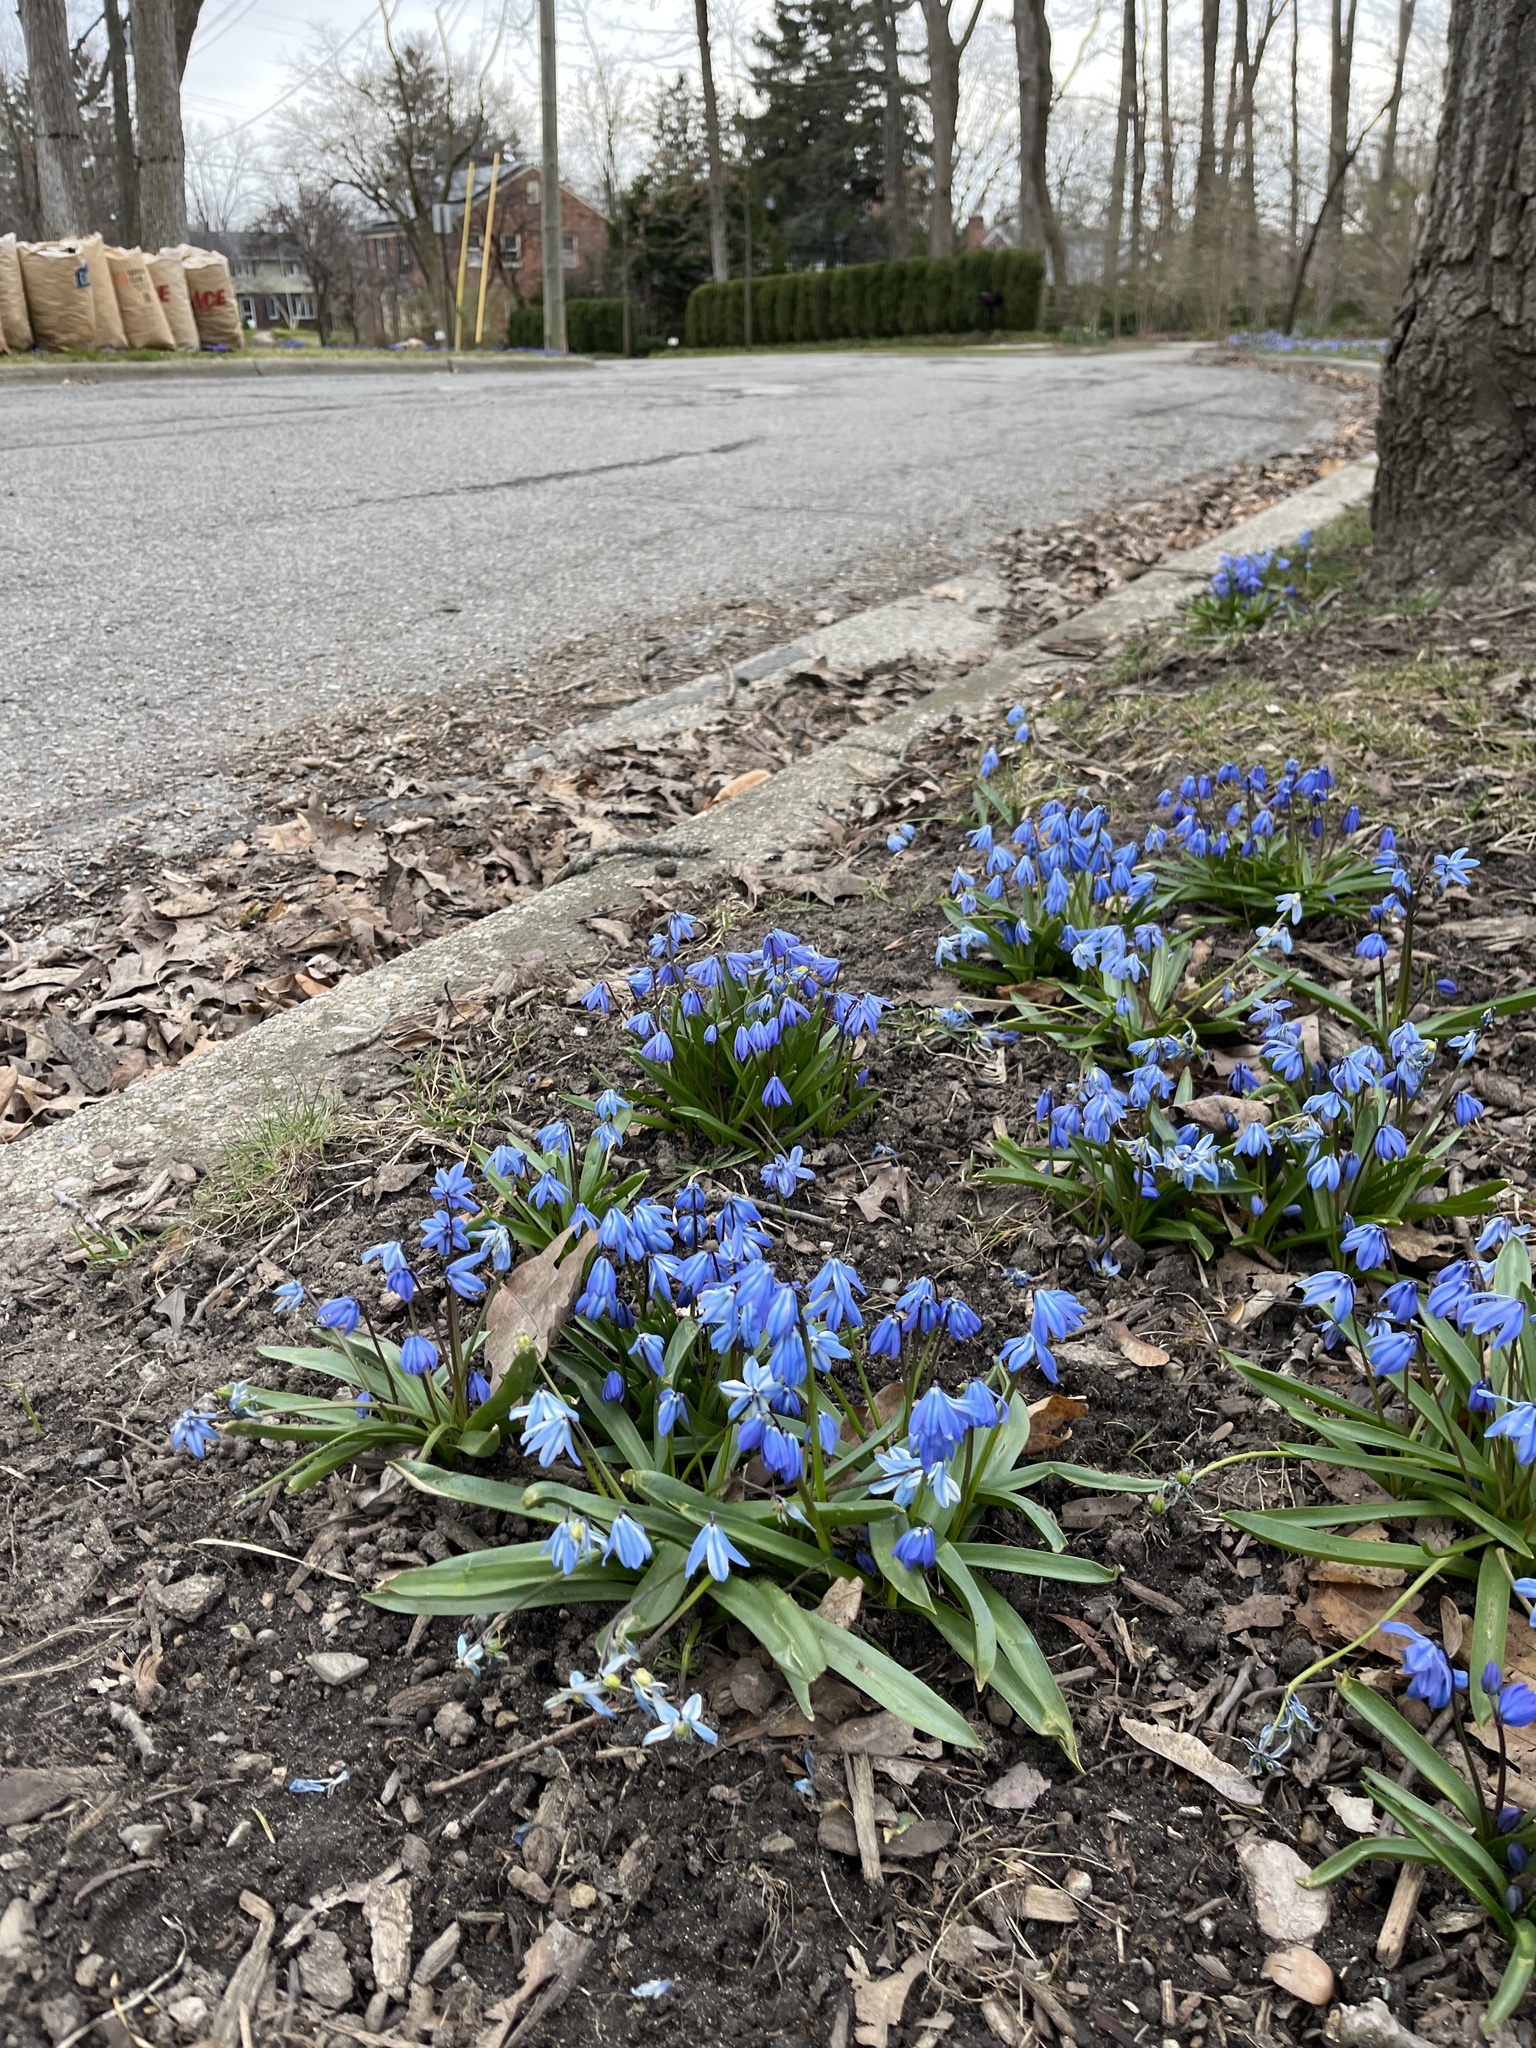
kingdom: Plantae
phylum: Tracheophyta
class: Liliopsida
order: Asparagales
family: Asparagaceae
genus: Scilla
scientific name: Scilla siberica
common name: Siberian squill
